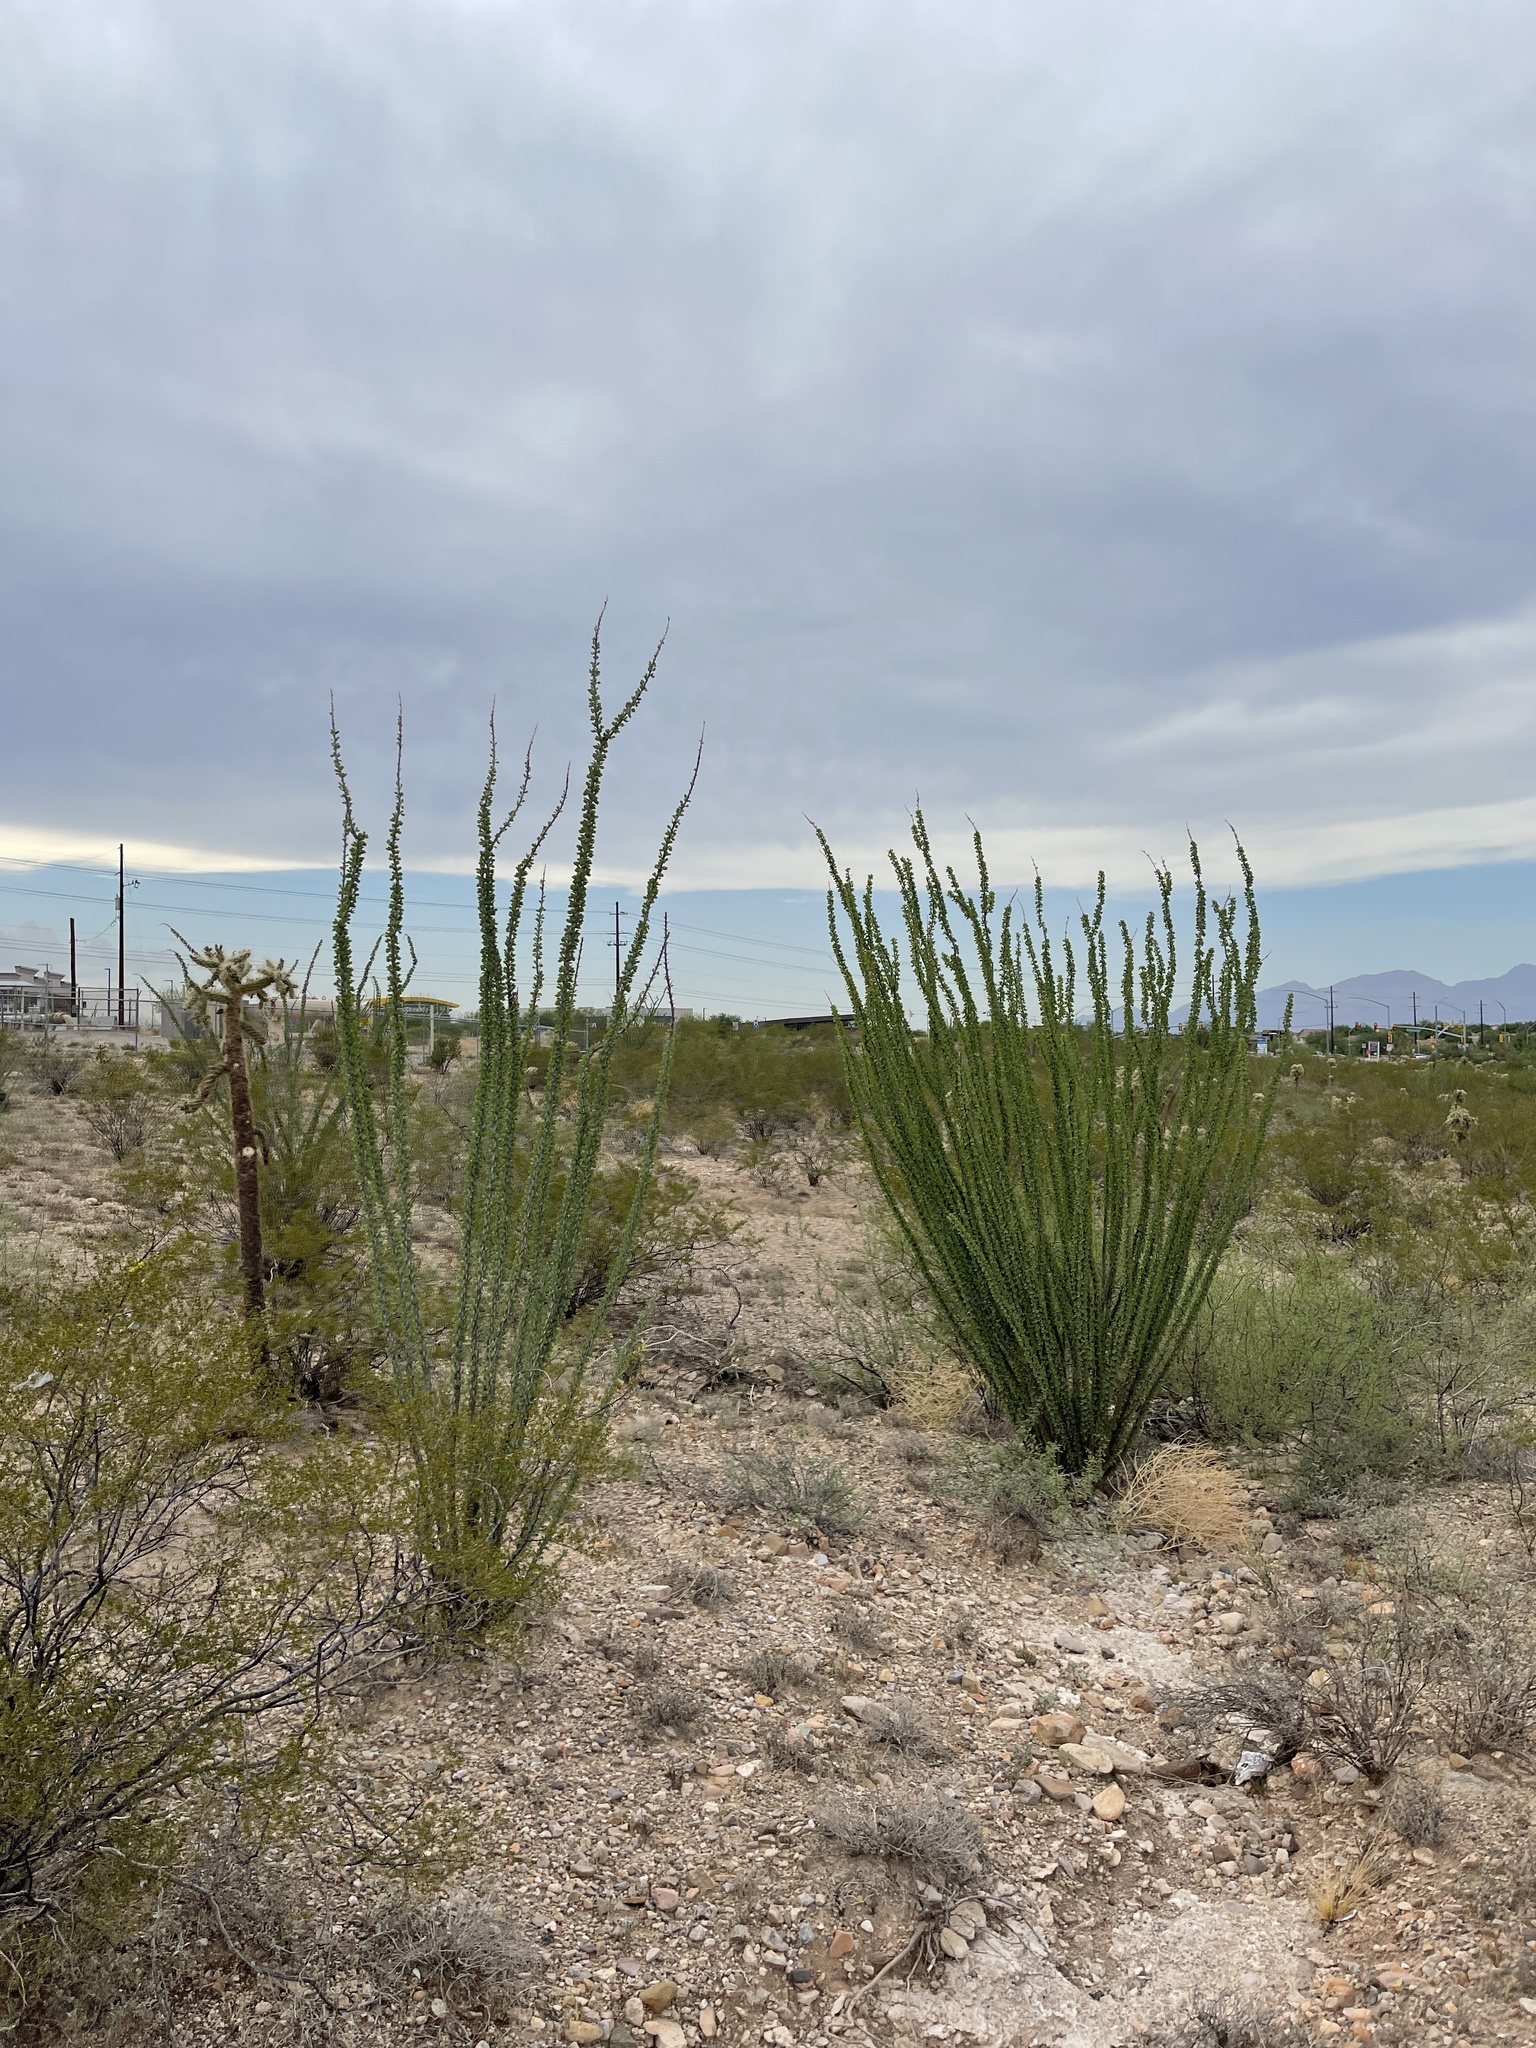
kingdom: Plantae
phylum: Tracheophyta
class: Magnoliopsida
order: Ericales
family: Fouquieriaceae
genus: Fouquieria
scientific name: Fouquieria splendens
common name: Vine-cactus
